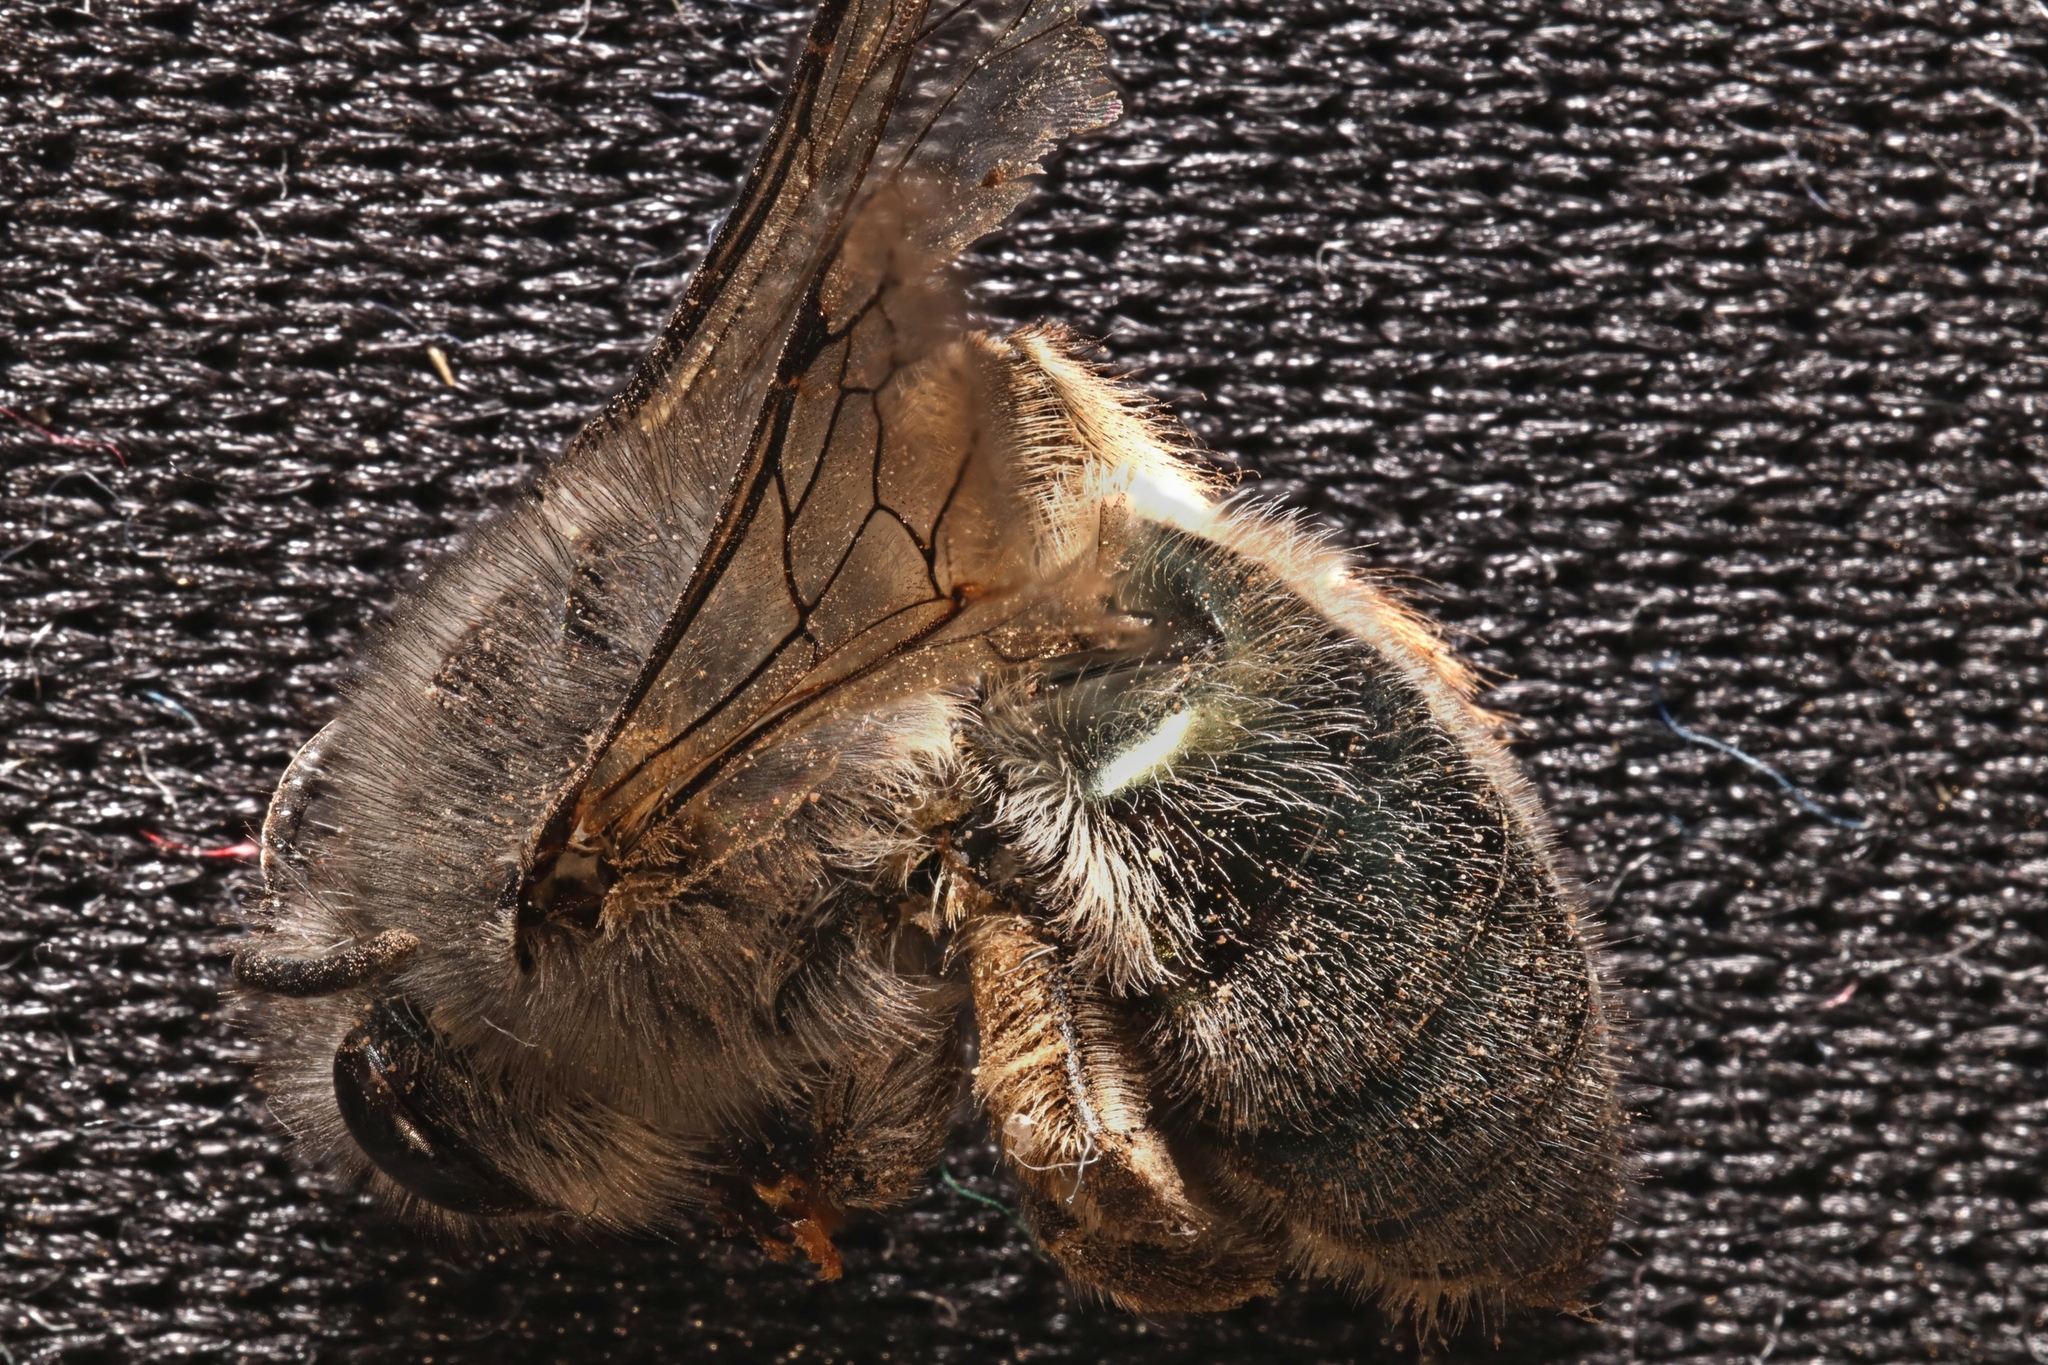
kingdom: Animalia
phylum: Arthropoda
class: Insecta
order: Hymenoptera
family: Colletidae
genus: Colletes
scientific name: Colletes cyanescens
